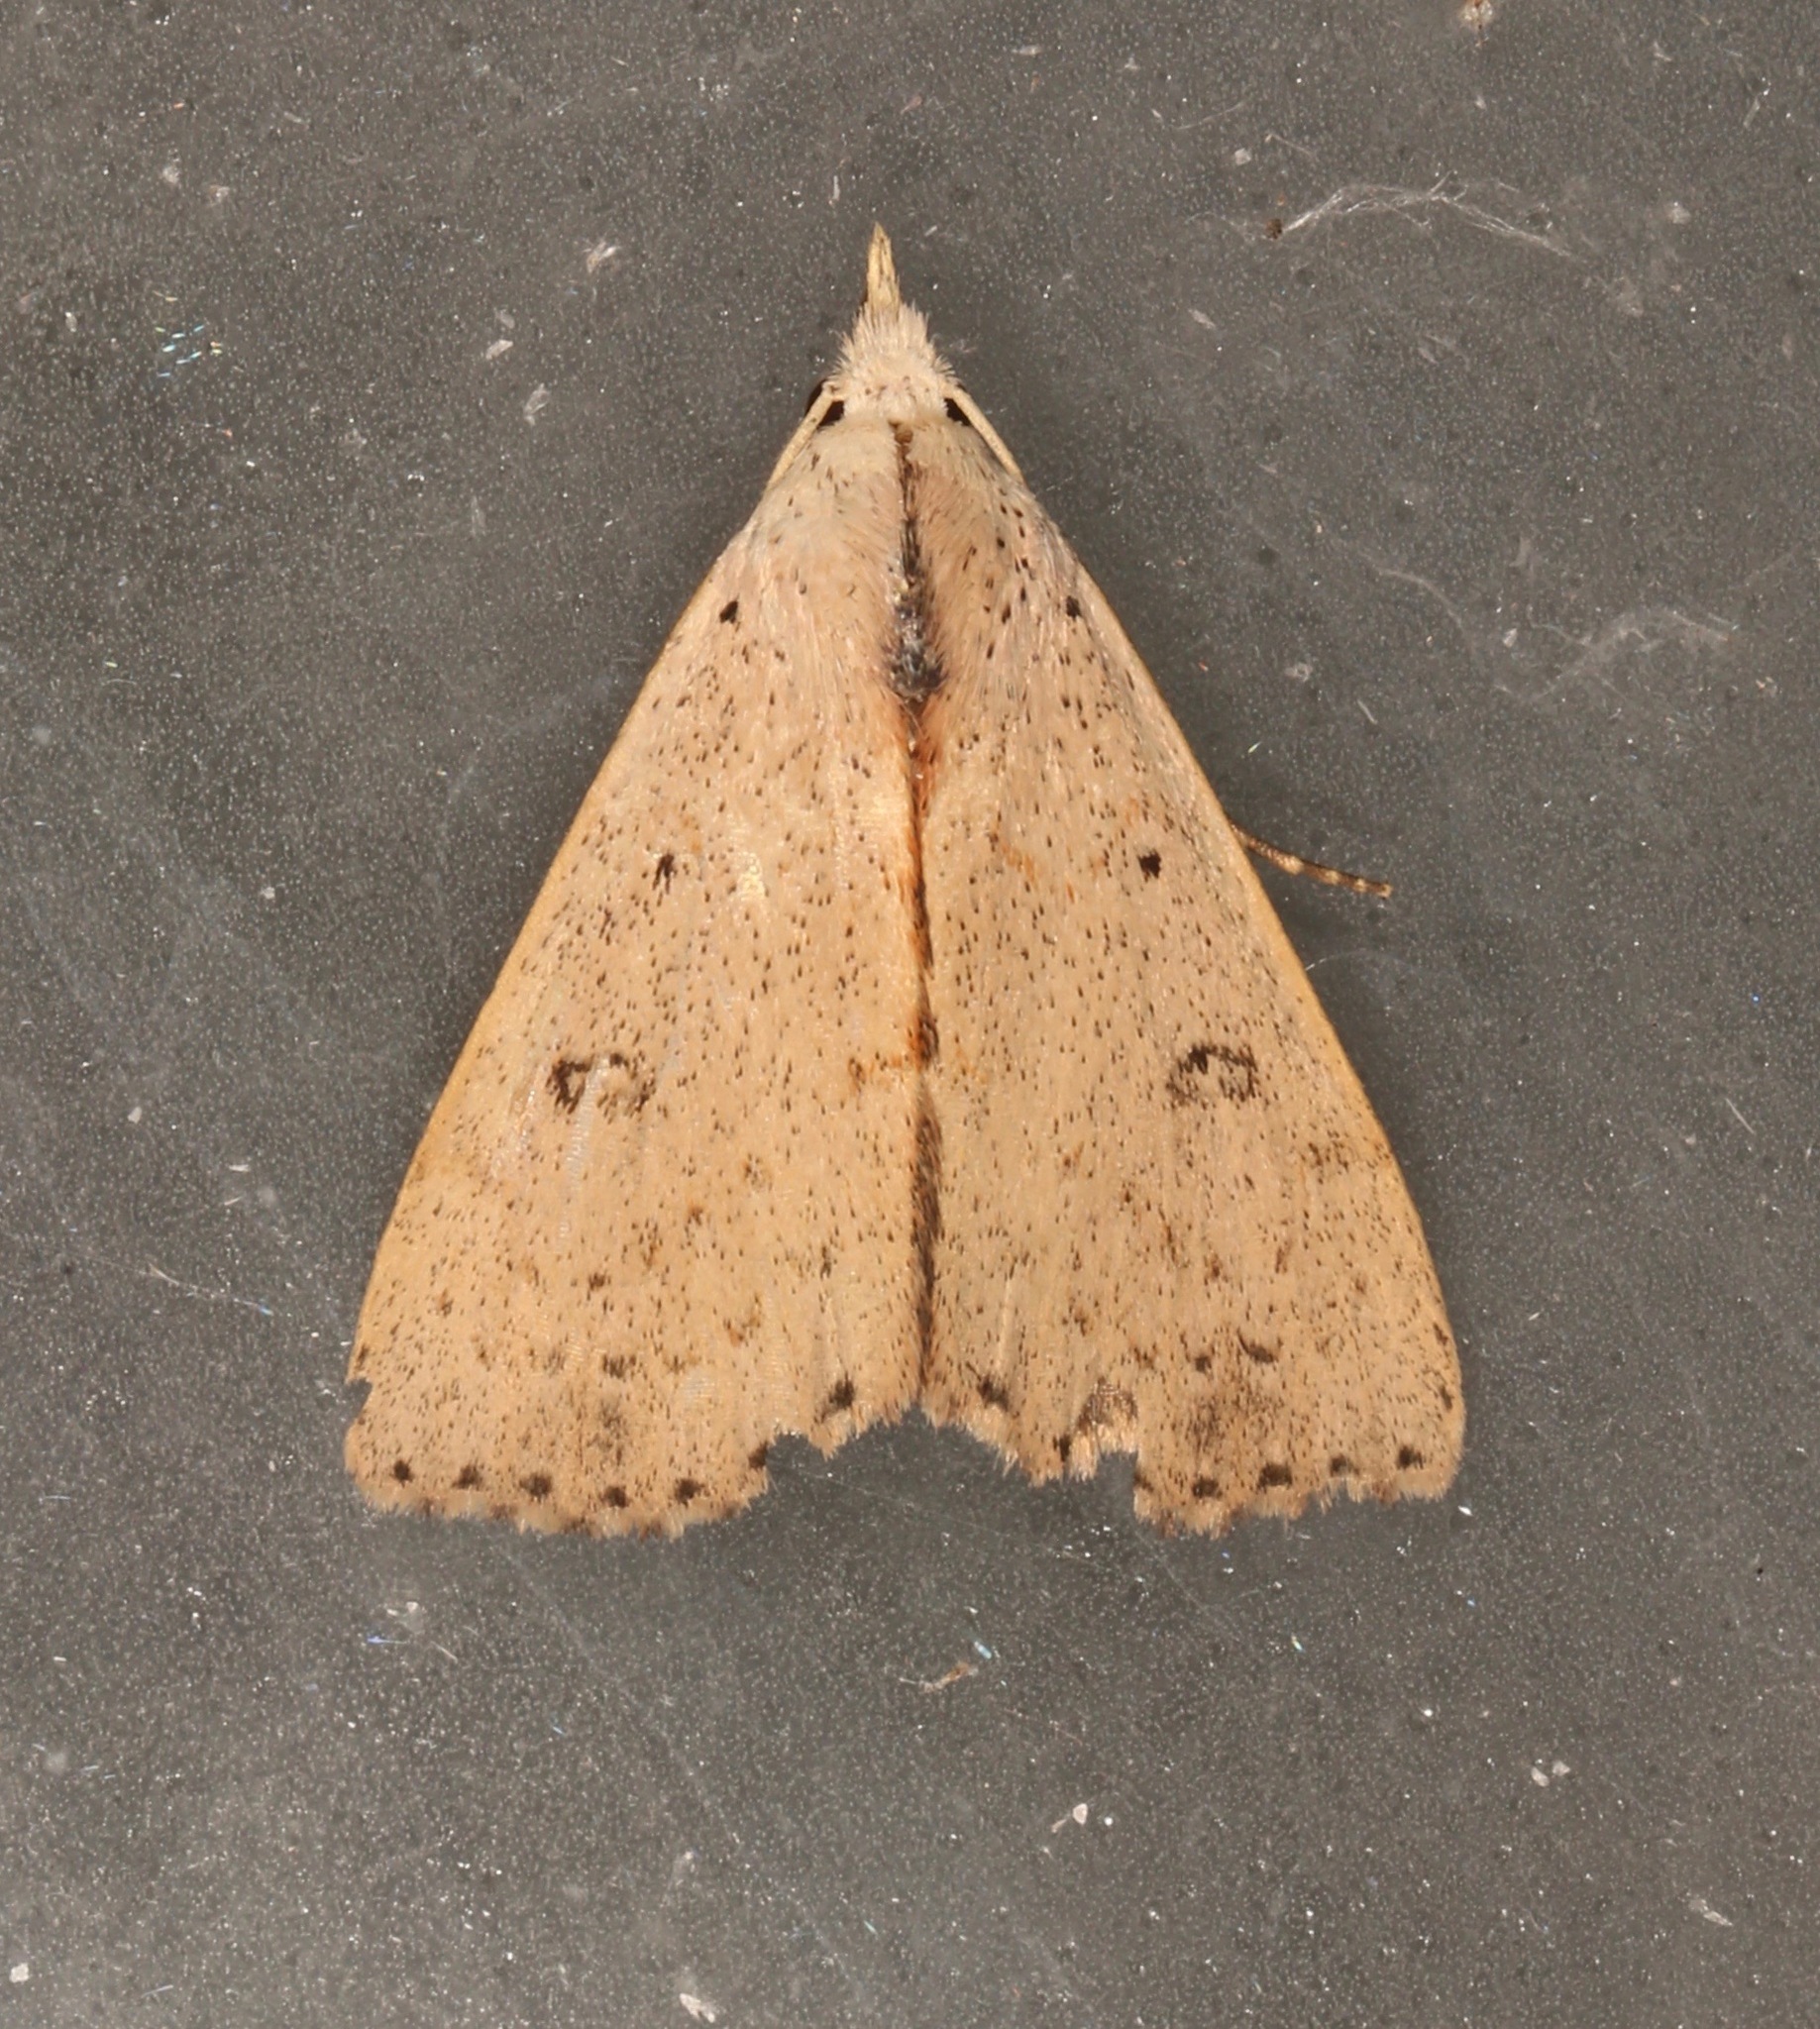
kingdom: Animalia
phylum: Arthropoda
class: Insecta
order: Lepidoptera
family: Erebidae
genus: Scolecocampa
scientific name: Scolecocampa liburna
